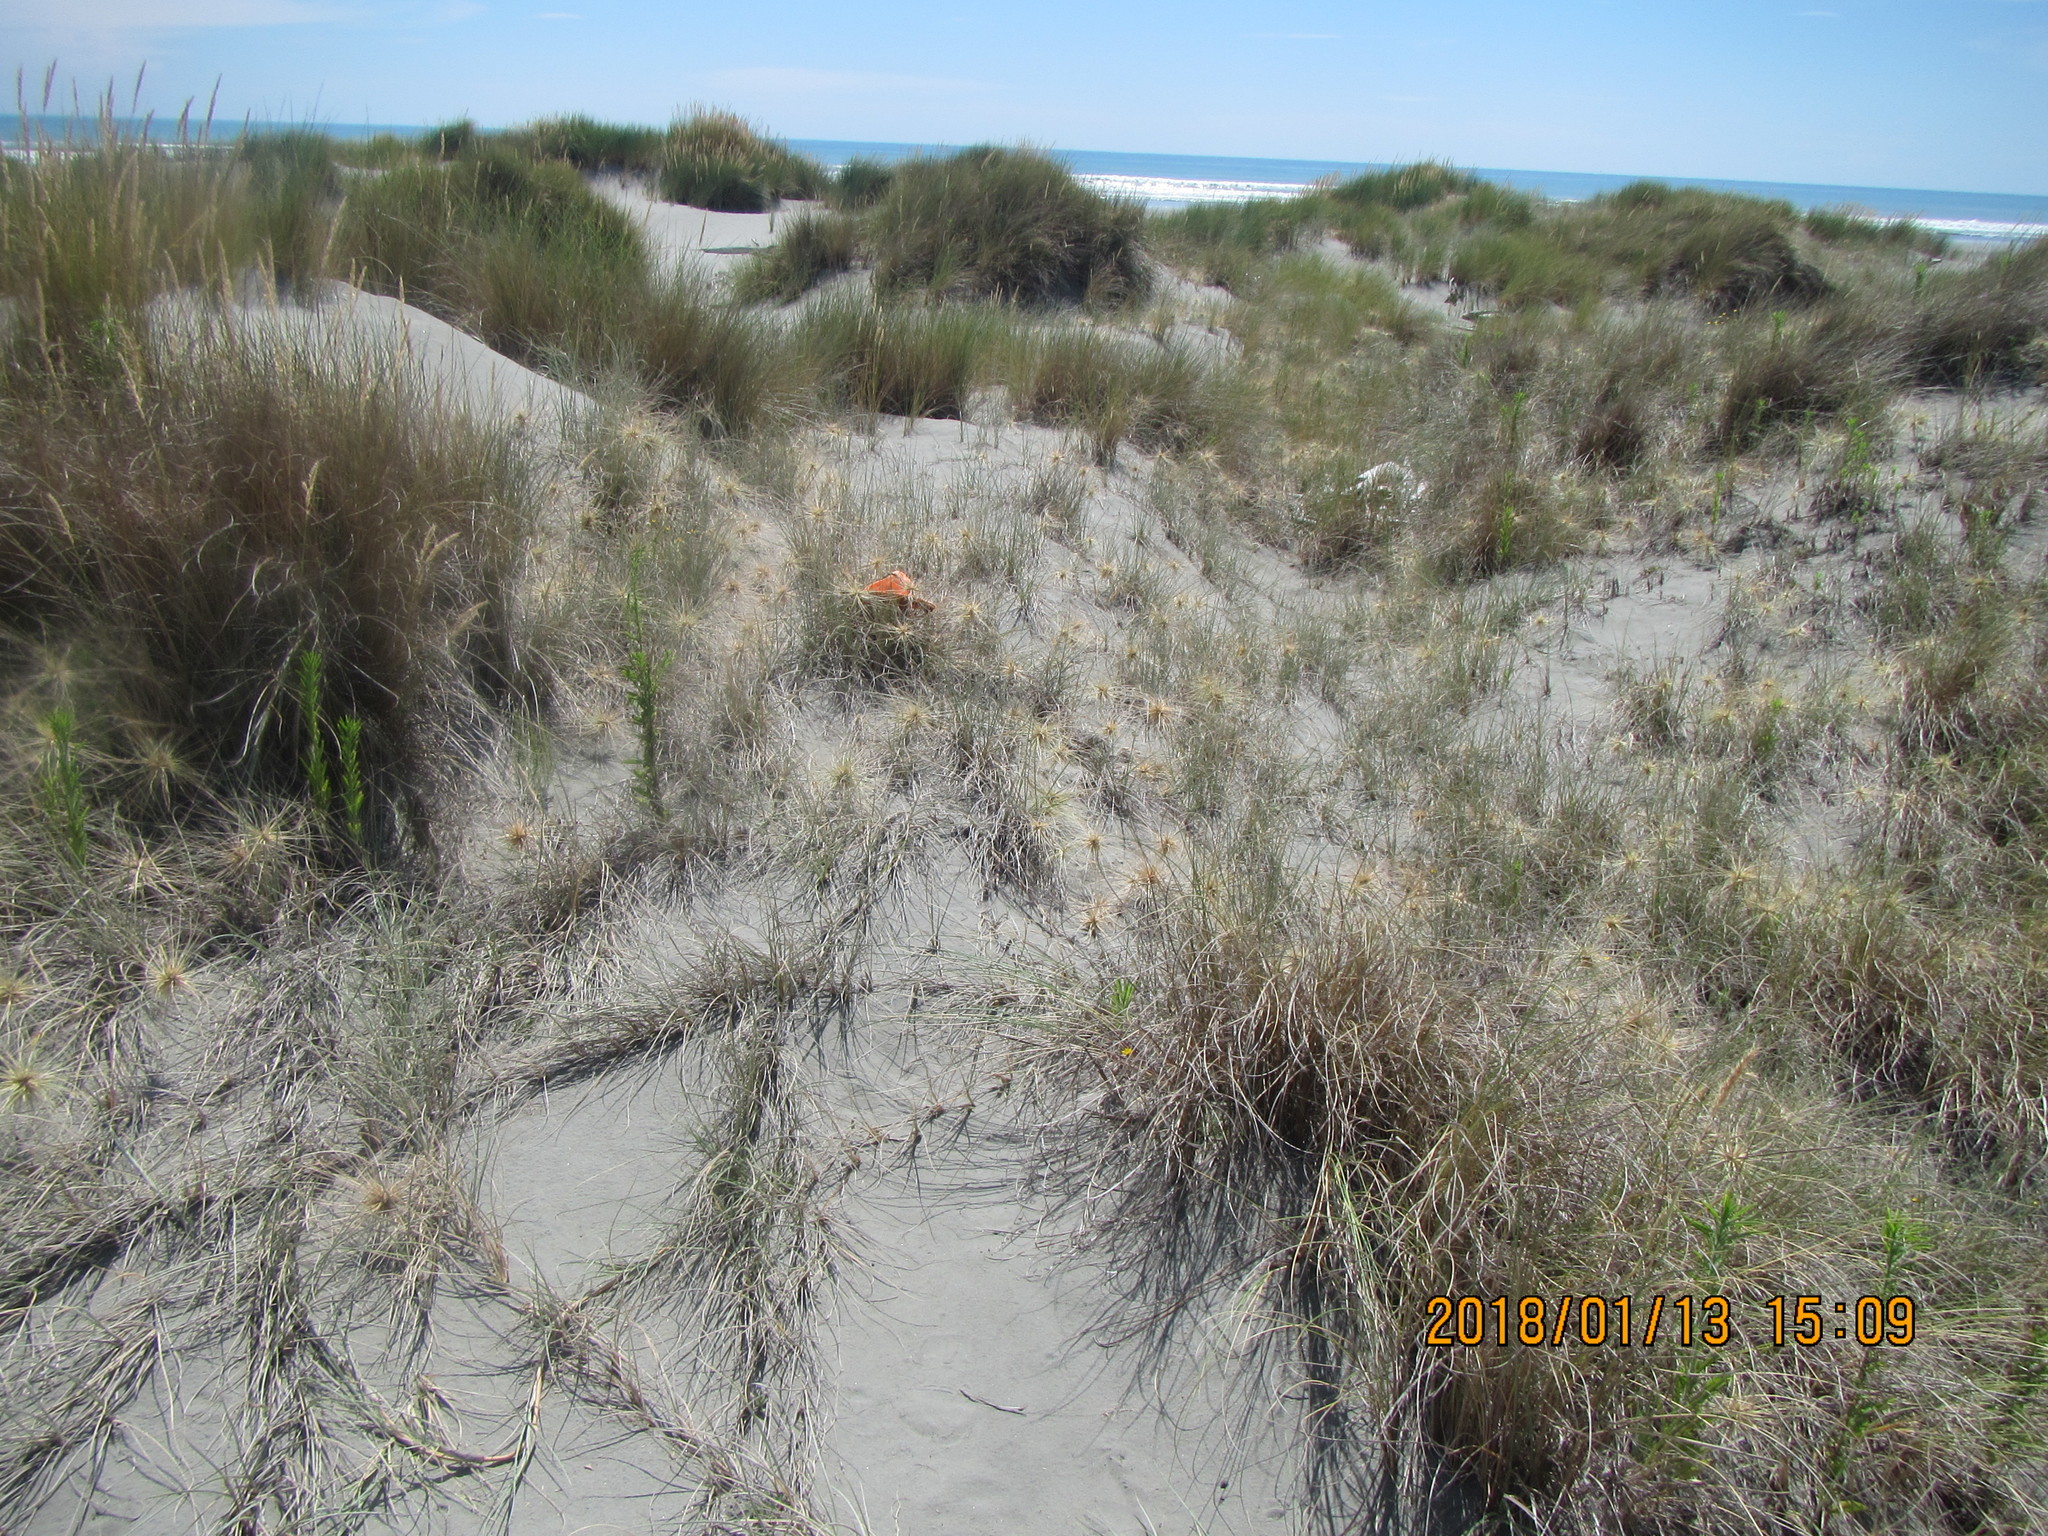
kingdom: Animalia
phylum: Arthropoda
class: Arachnida
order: Araneae
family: Theridiidae
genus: Latrodectus
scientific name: Latrodectus katipo
